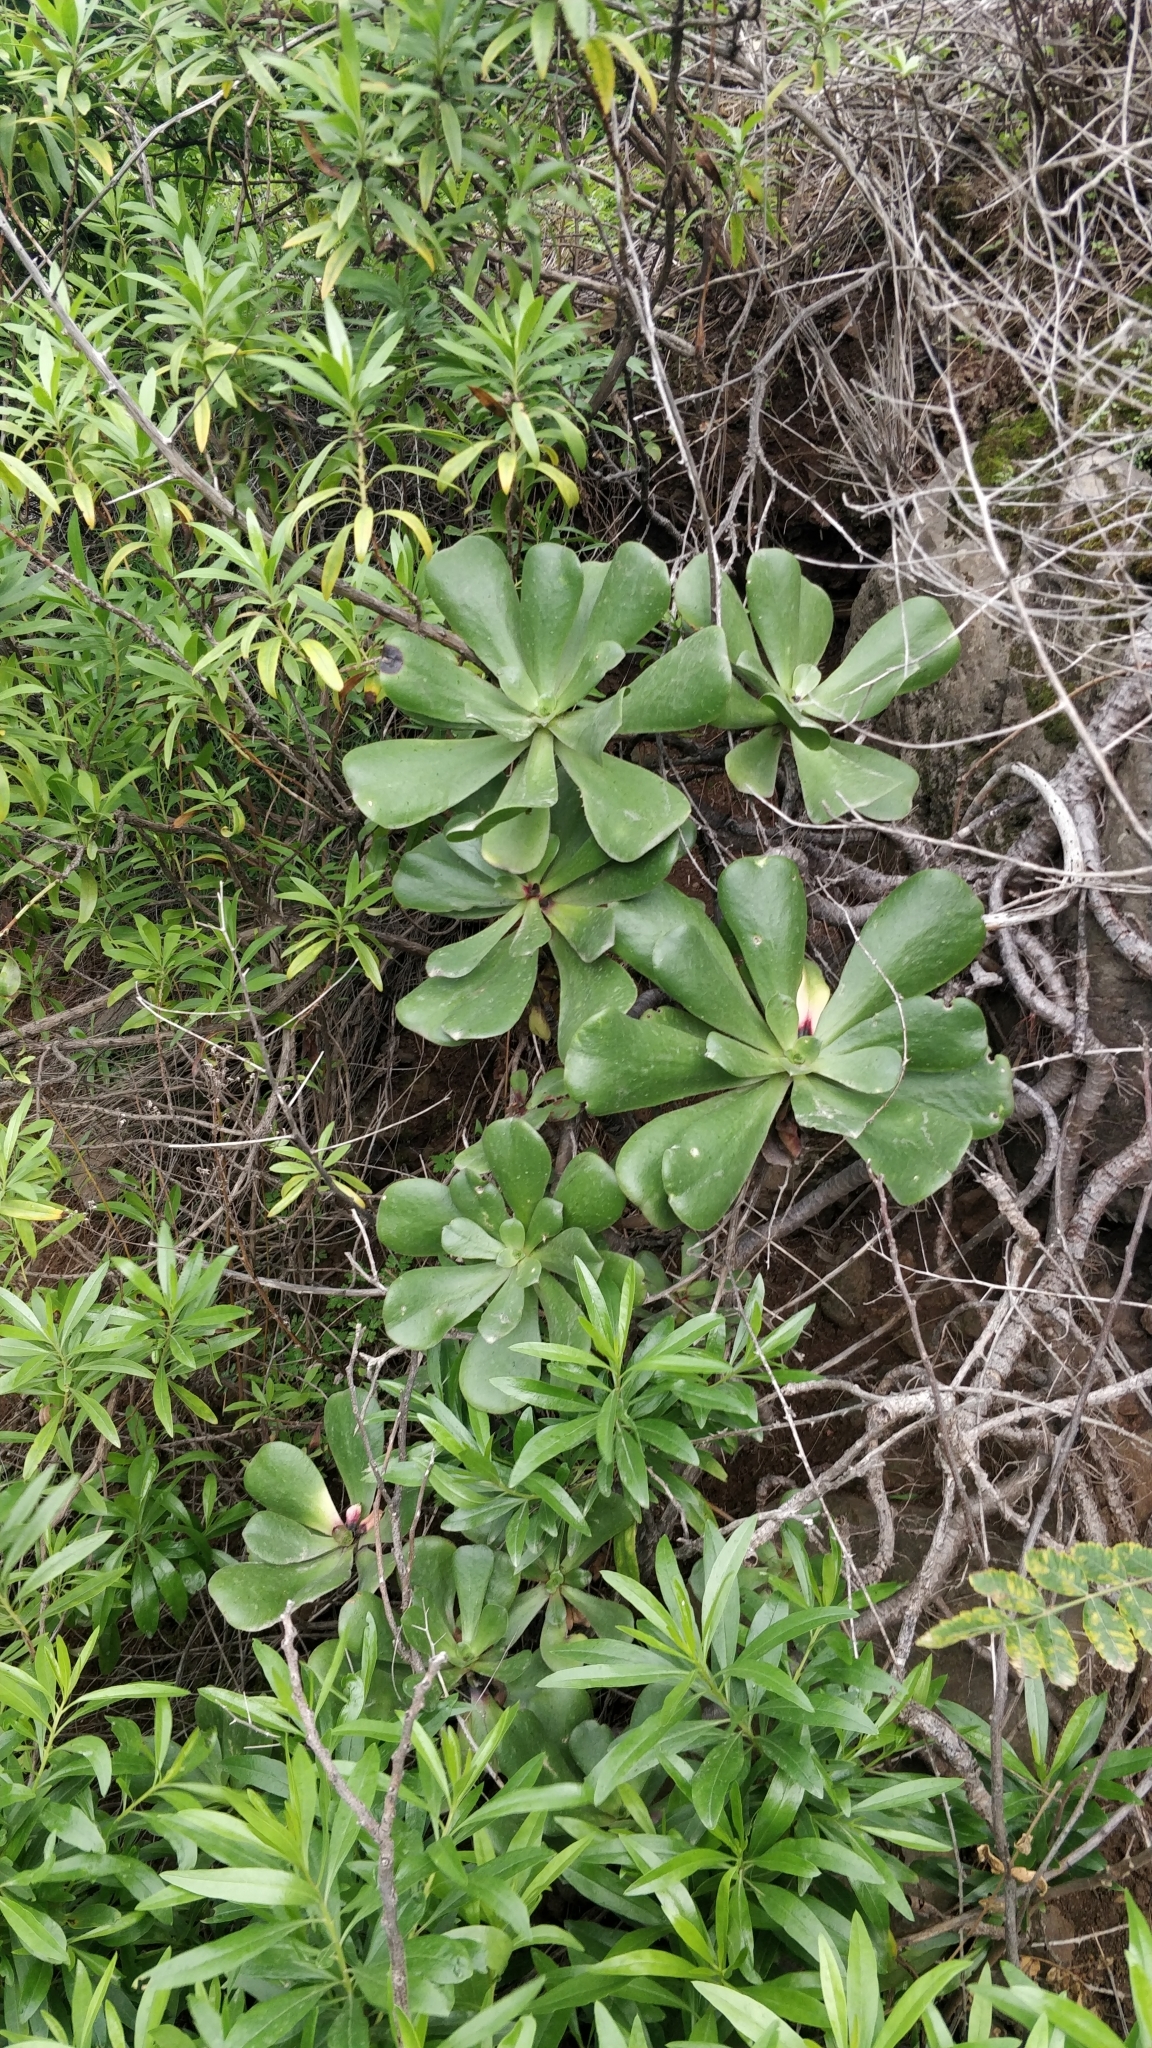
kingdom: Plantae
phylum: Tracheophyta
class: Magnoliopsida
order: Saxifragales
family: Crassulaceae
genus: Aeonium
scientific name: Aeonium glutinosum
